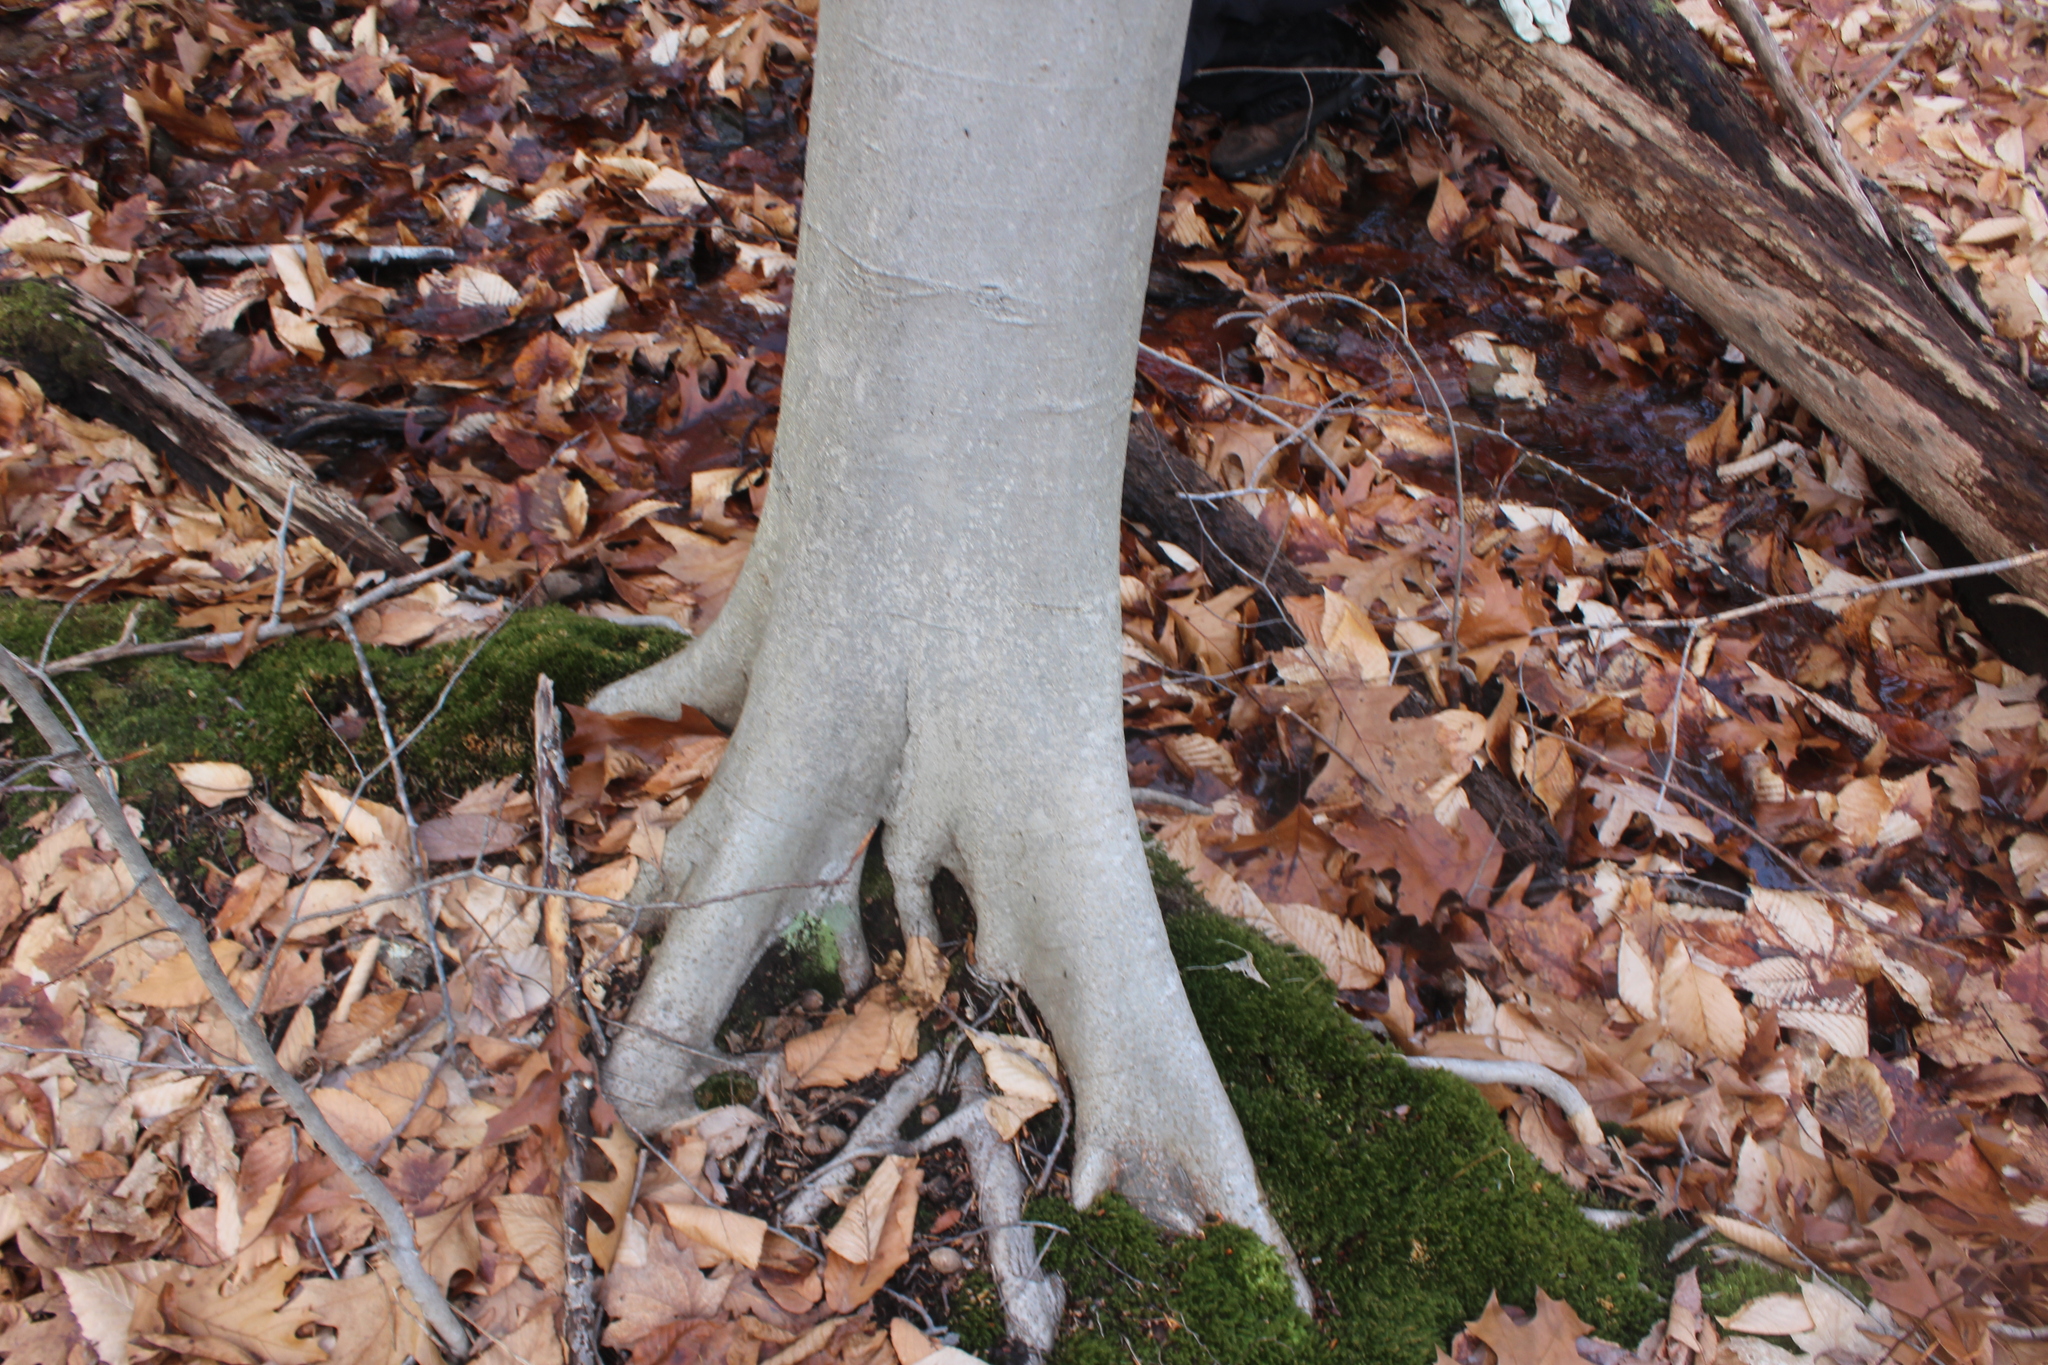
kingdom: Plantae
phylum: Tracheophyta
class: Magnoliopsida
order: Fagales
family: Fagaceae
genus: Fagus
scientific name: Fagus grandifolia
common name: American beech
